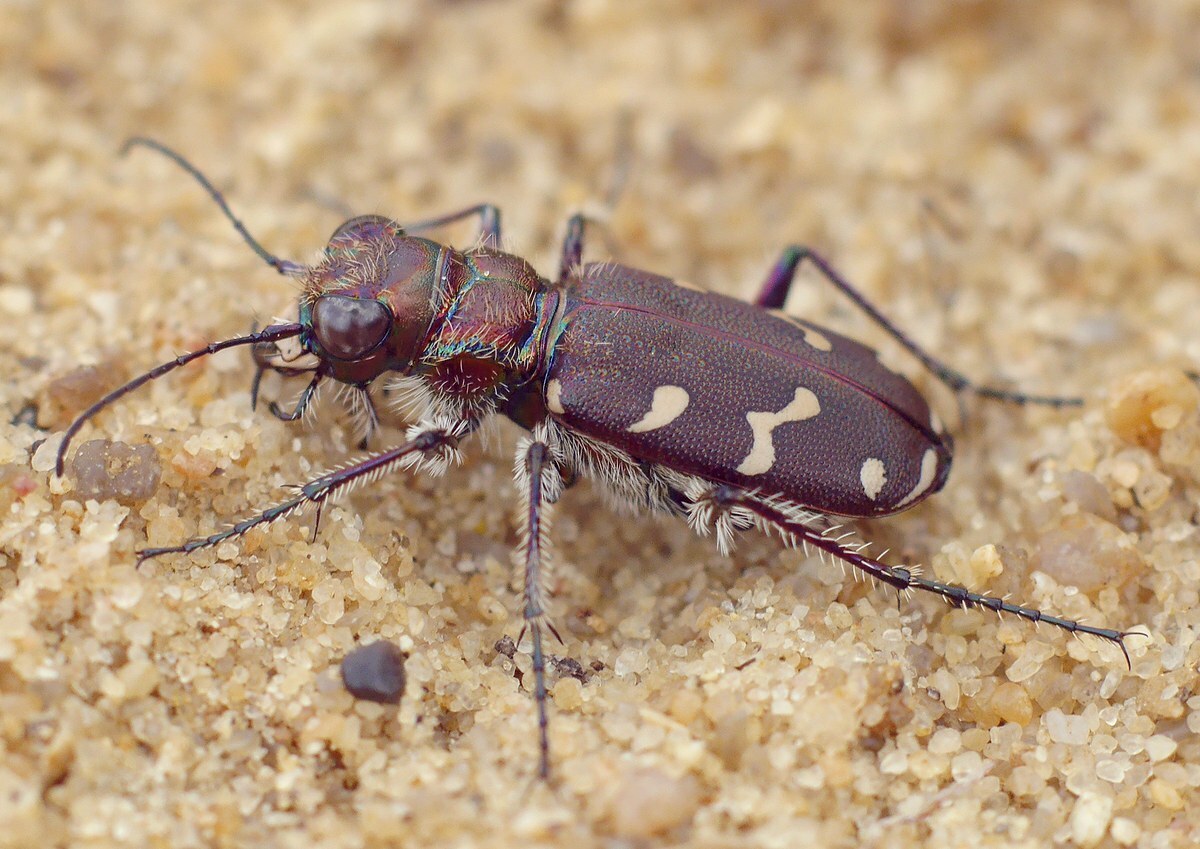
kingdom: Animalia
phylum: Arthropoda
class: Insecta
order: Coleoptera
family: Carabidae
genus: Cicindela
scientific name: Cicindela soluta
